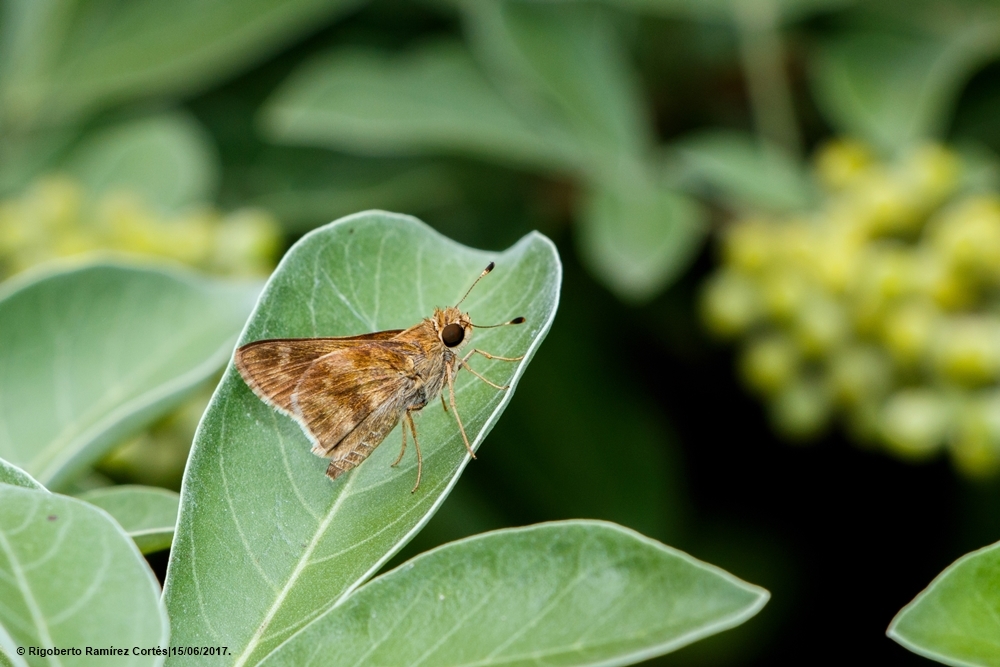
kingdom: Animalia
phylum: Arthropoda
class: Insecta
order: Lepidoptera
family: Hesperiidae
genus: Pompeius
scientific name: Pompeius pompeius
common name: Pompeius skipper
